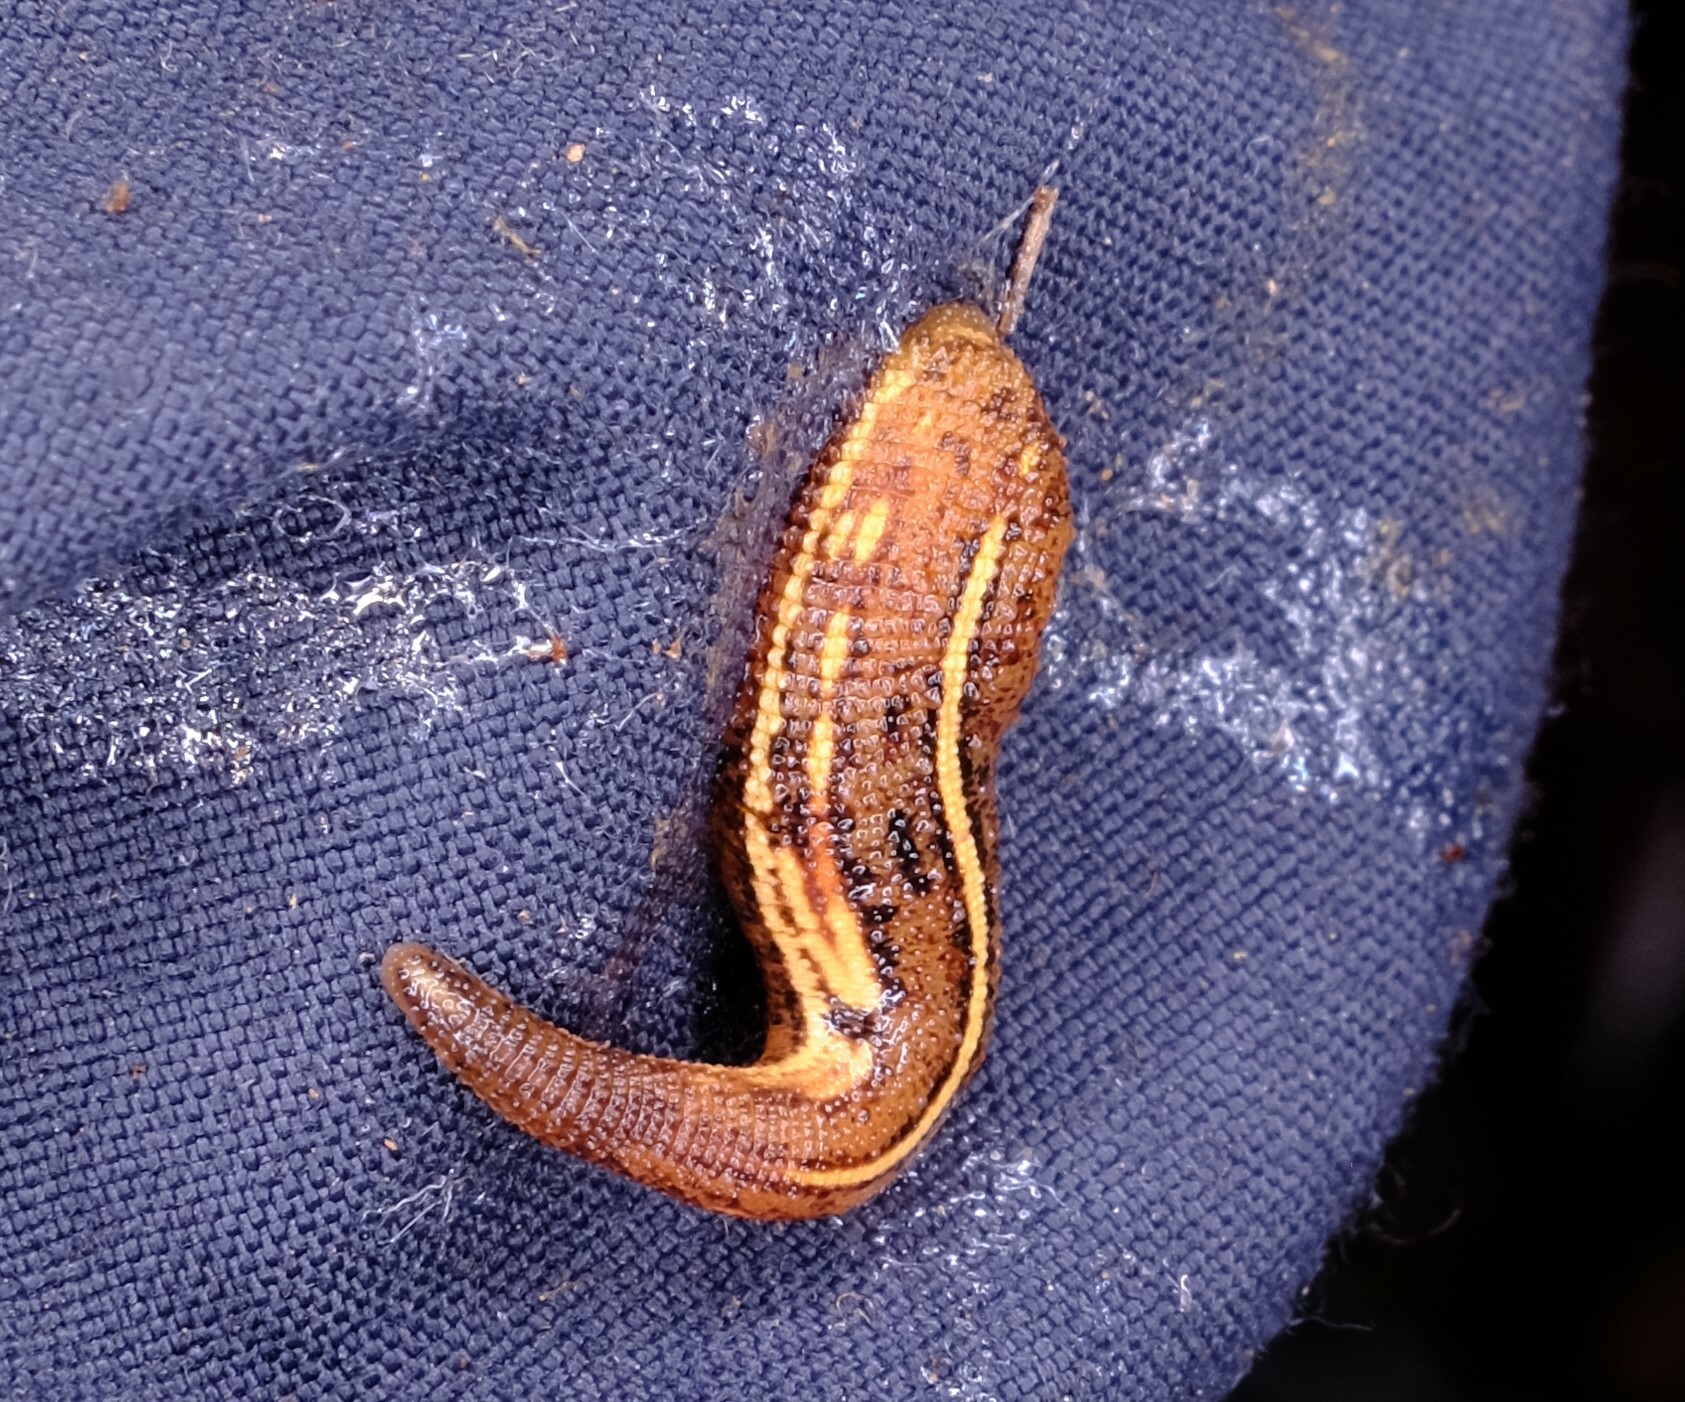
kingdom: Animalia
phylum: Annelida
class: Clitellata
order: Arhynchobdellida
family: Haemadipsidae
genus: Chtonobdella
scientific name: Chtonobdella limbata
